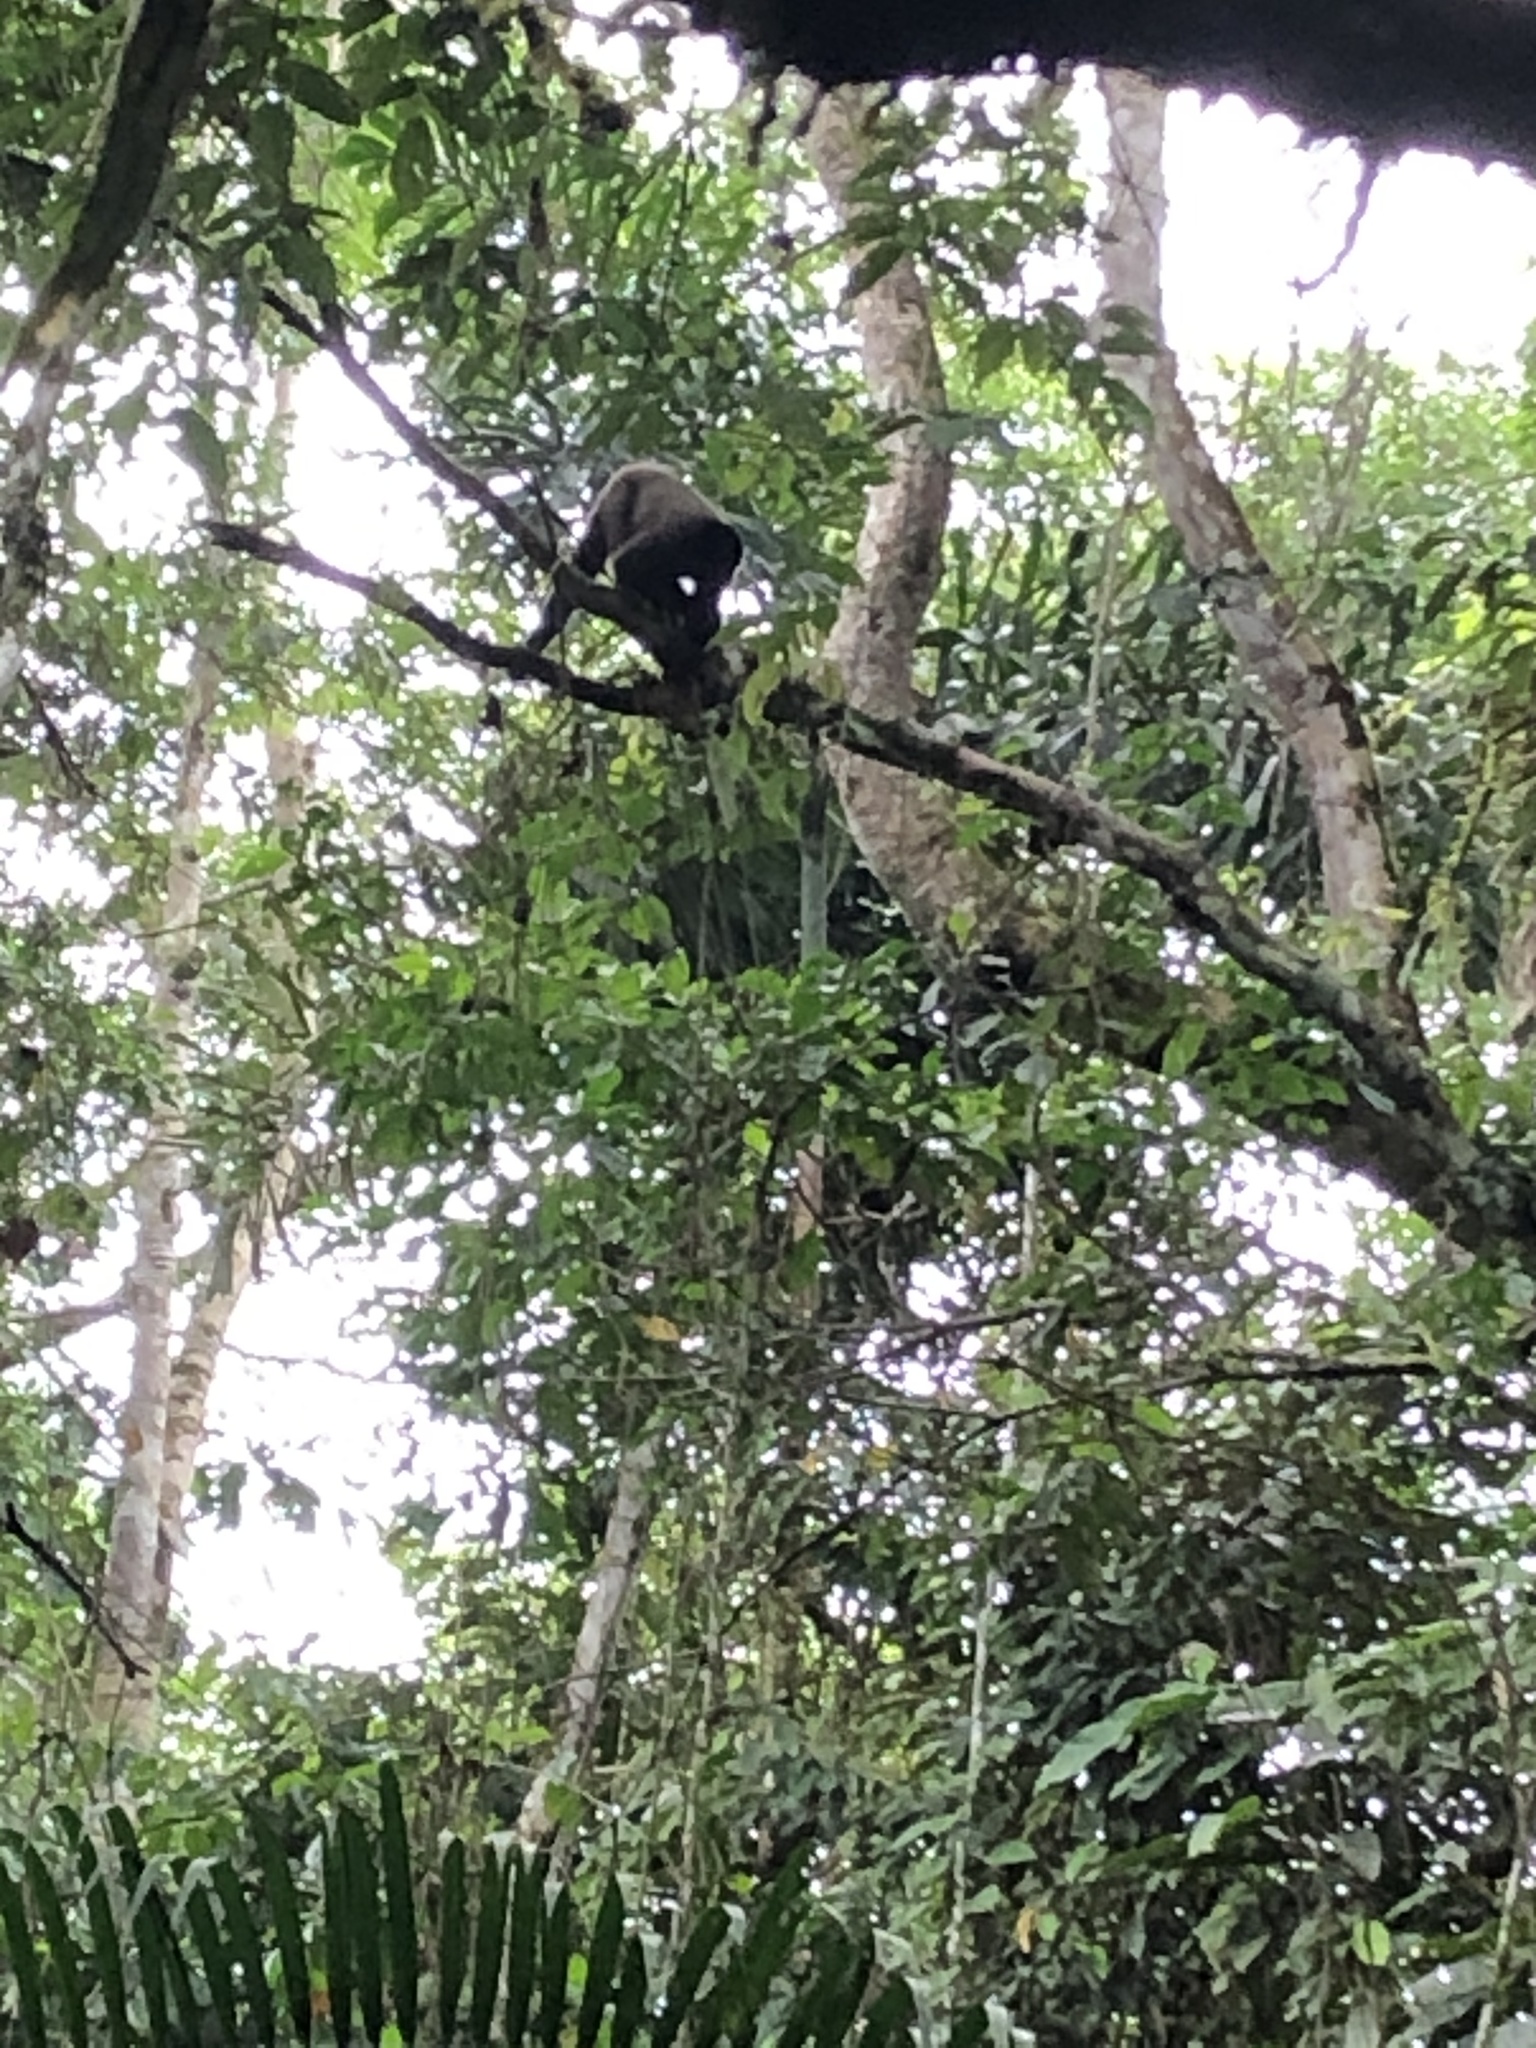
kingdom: Animalia
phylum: Chordata
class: Mammalia
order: Primates
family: Atelidae
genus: Lagothrix
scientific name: Lagothrix lagothricha
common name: Brown woolly monkey
